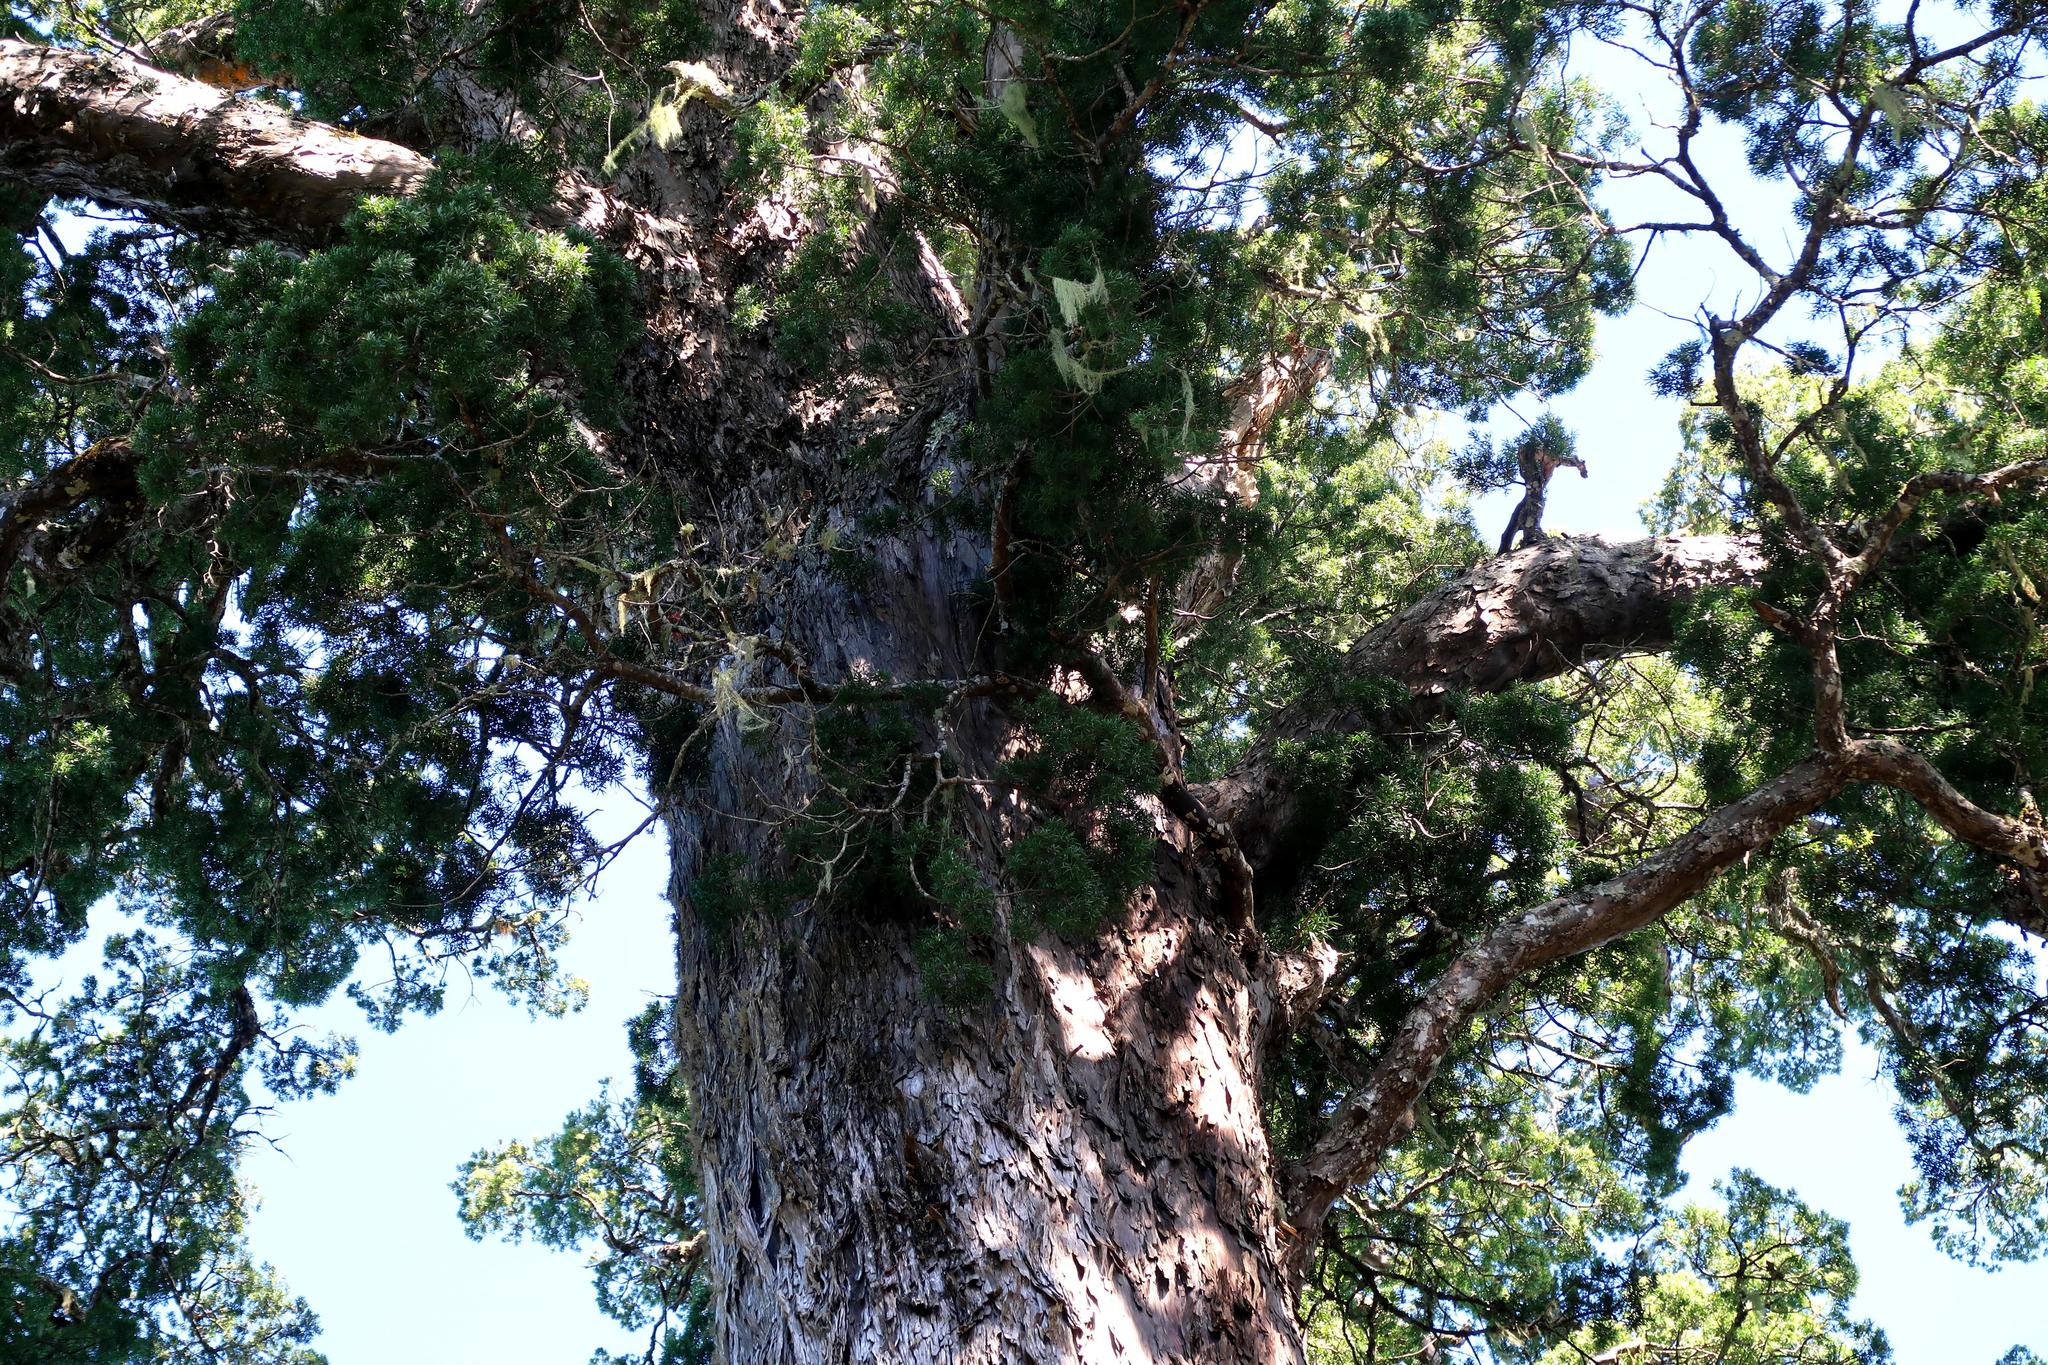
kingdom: Plantae
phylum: Tracheophyta
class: Pinopsida
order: Pinales
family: Podocarpaceae
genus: Afrocarpus
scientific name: Afrocarpus falcatus
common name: Bastard yellowwood
